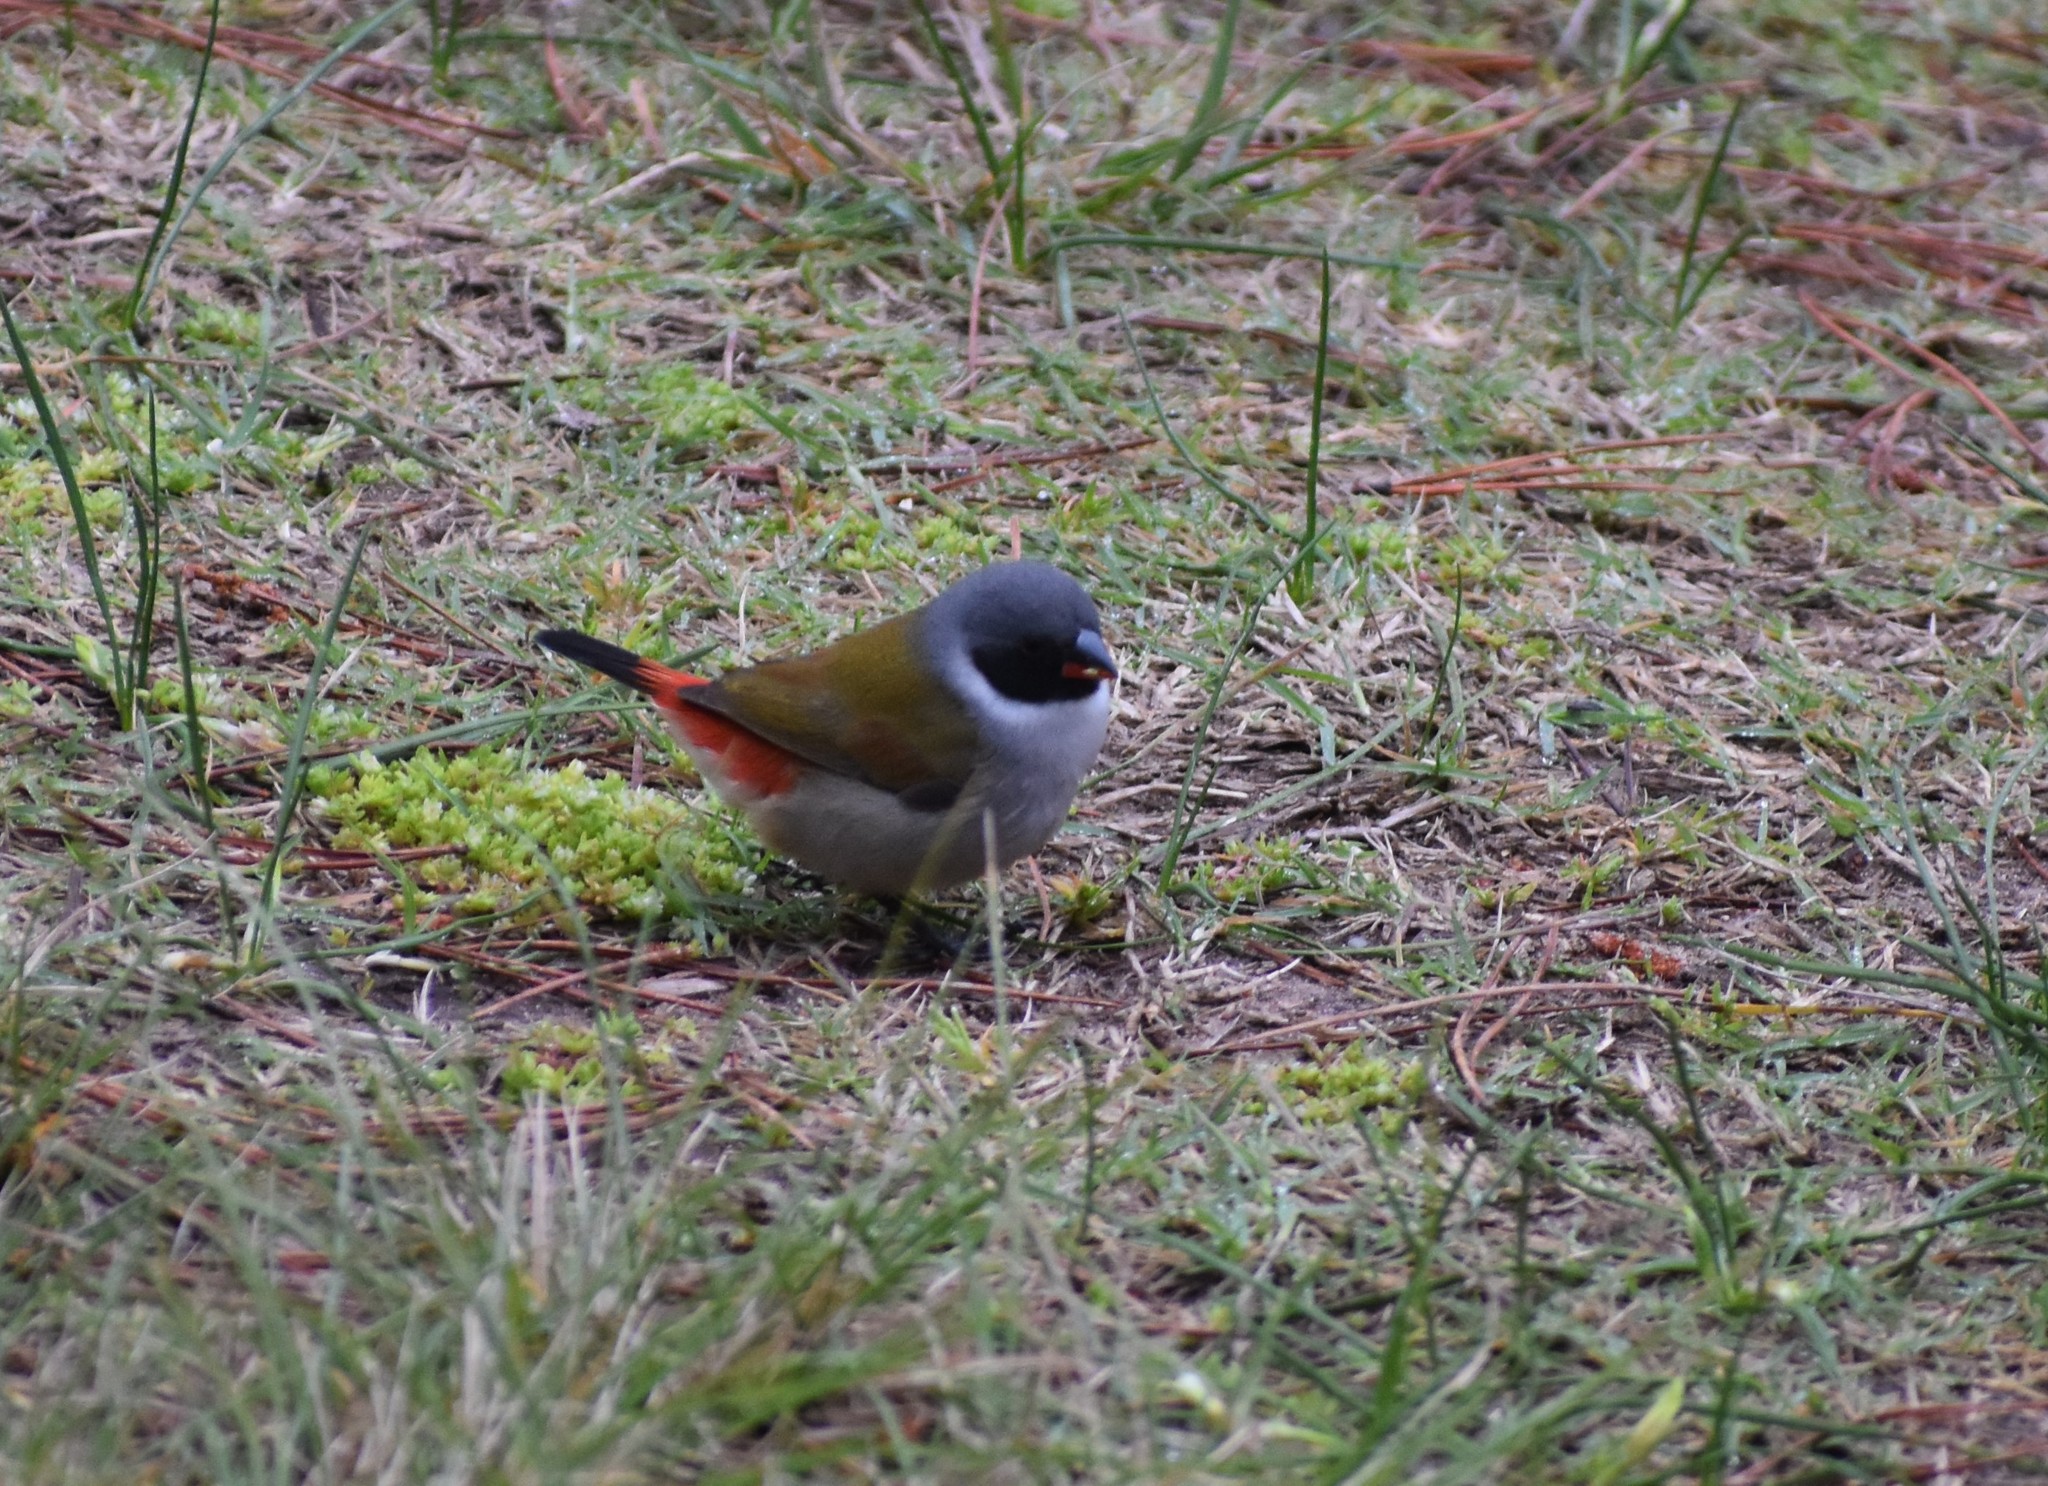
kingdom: Animalia
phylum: Chordata
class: Aves
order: Passeriformes
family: Estrildidae
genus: Coccopygia
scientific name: Coccopygia melanotis
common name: Swee waxbill
